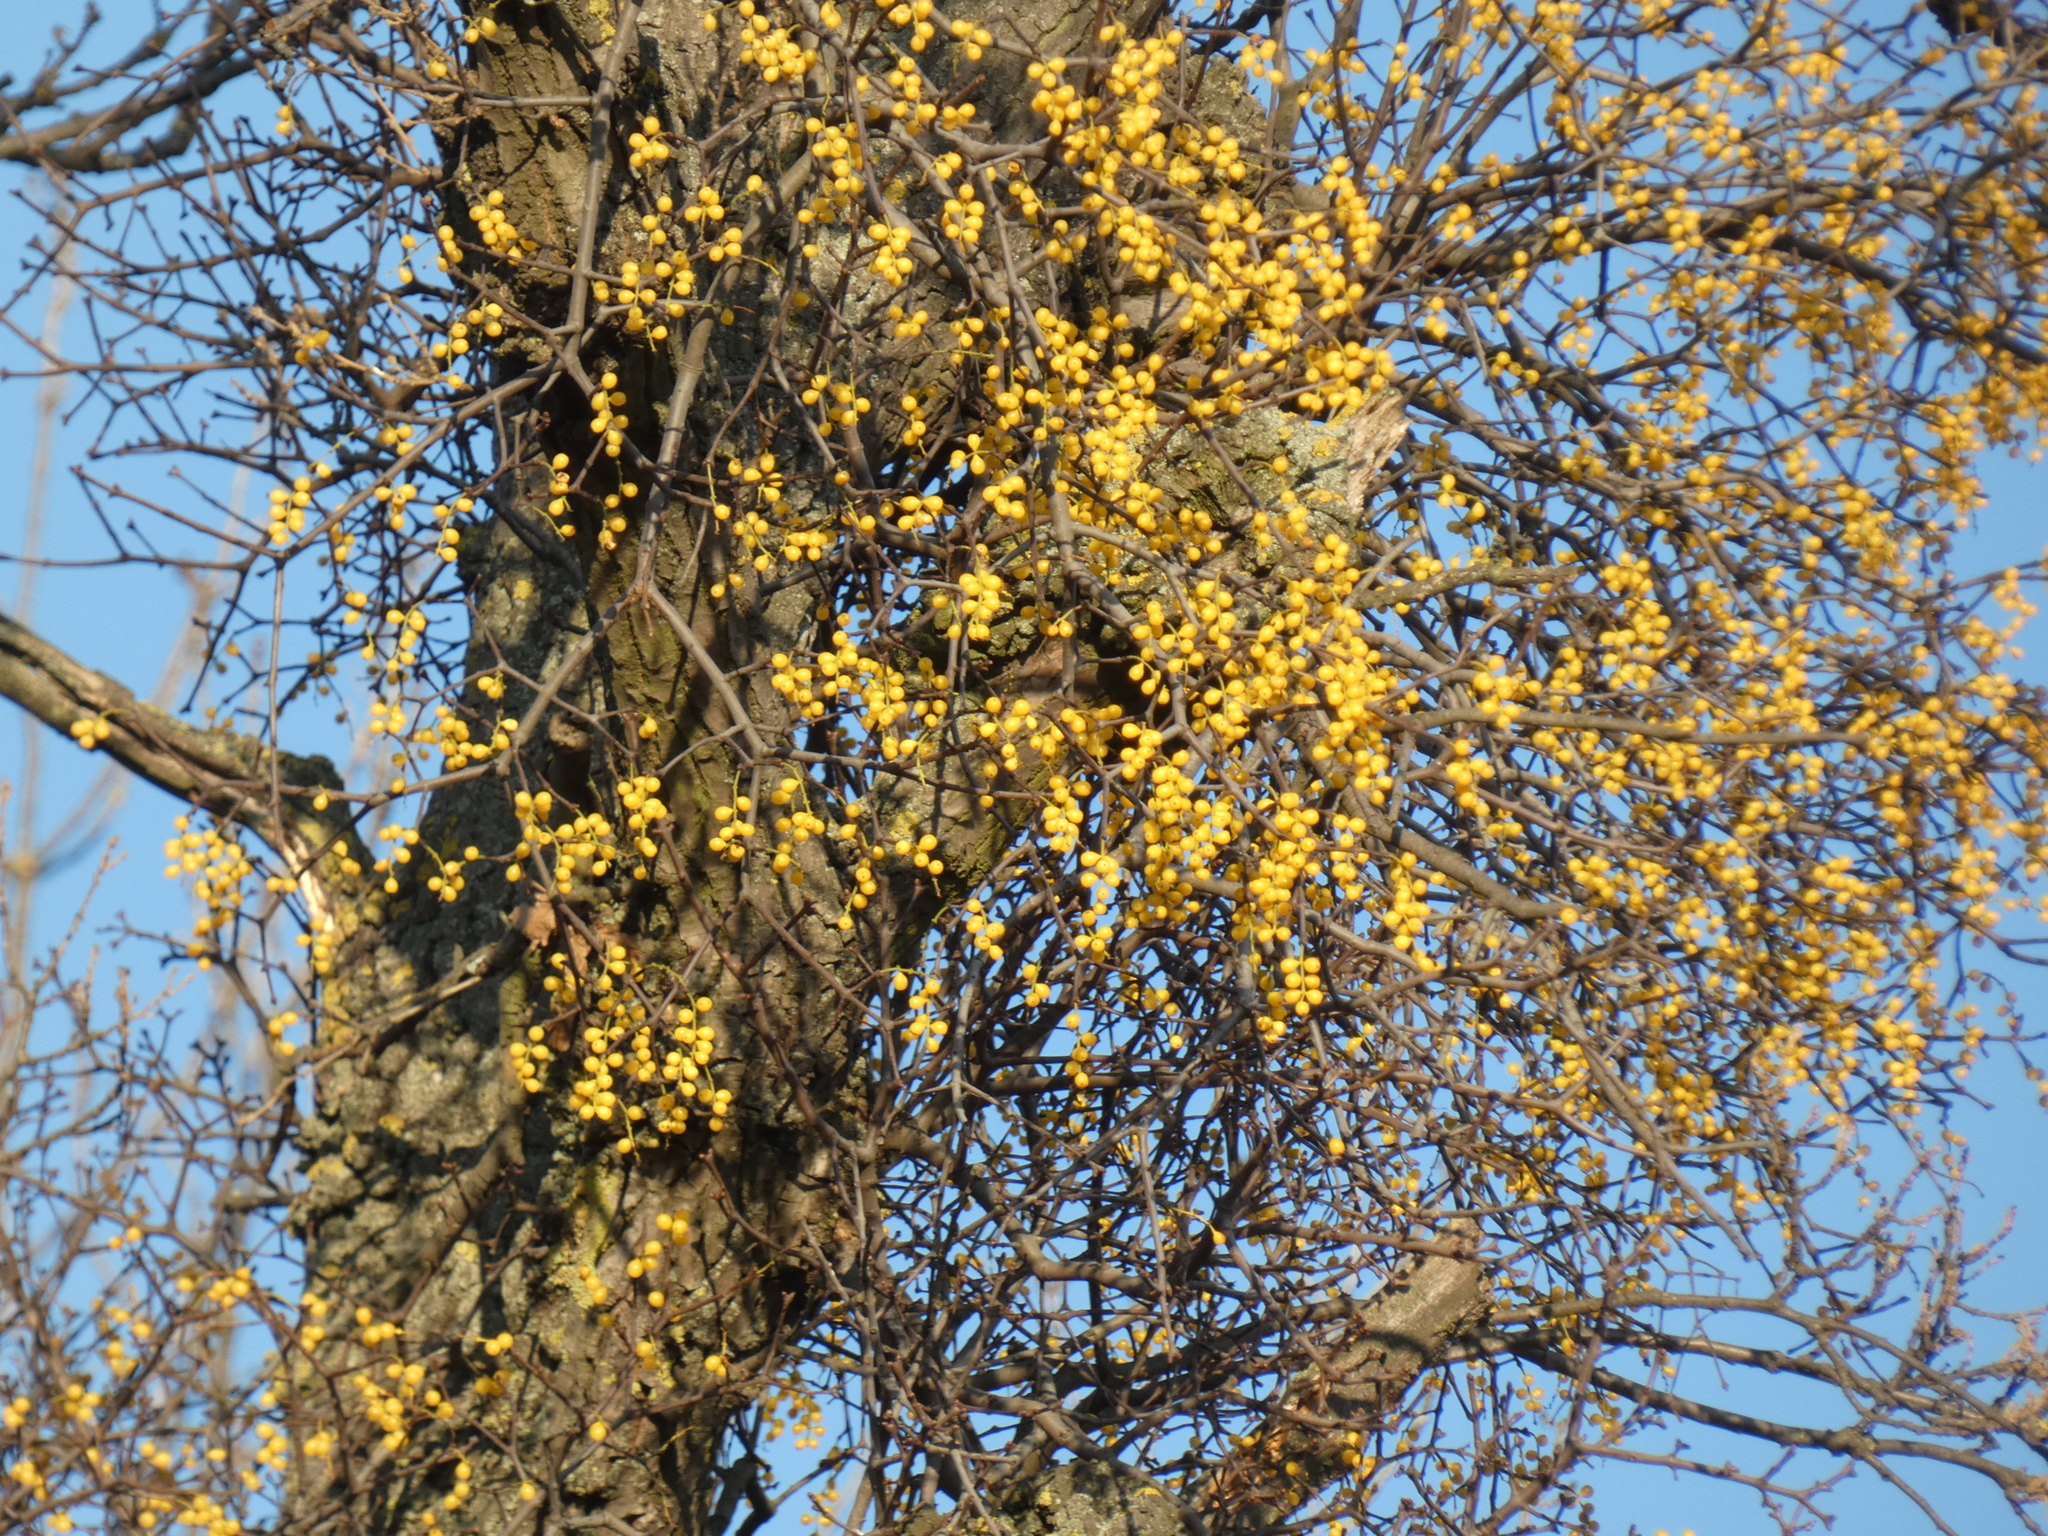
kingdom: Plantae
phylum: Tracheophyta
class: Magnoliopsida
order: Santalales
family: Loranthaceae
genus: Loranthus
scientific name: Loranthus europaeus
